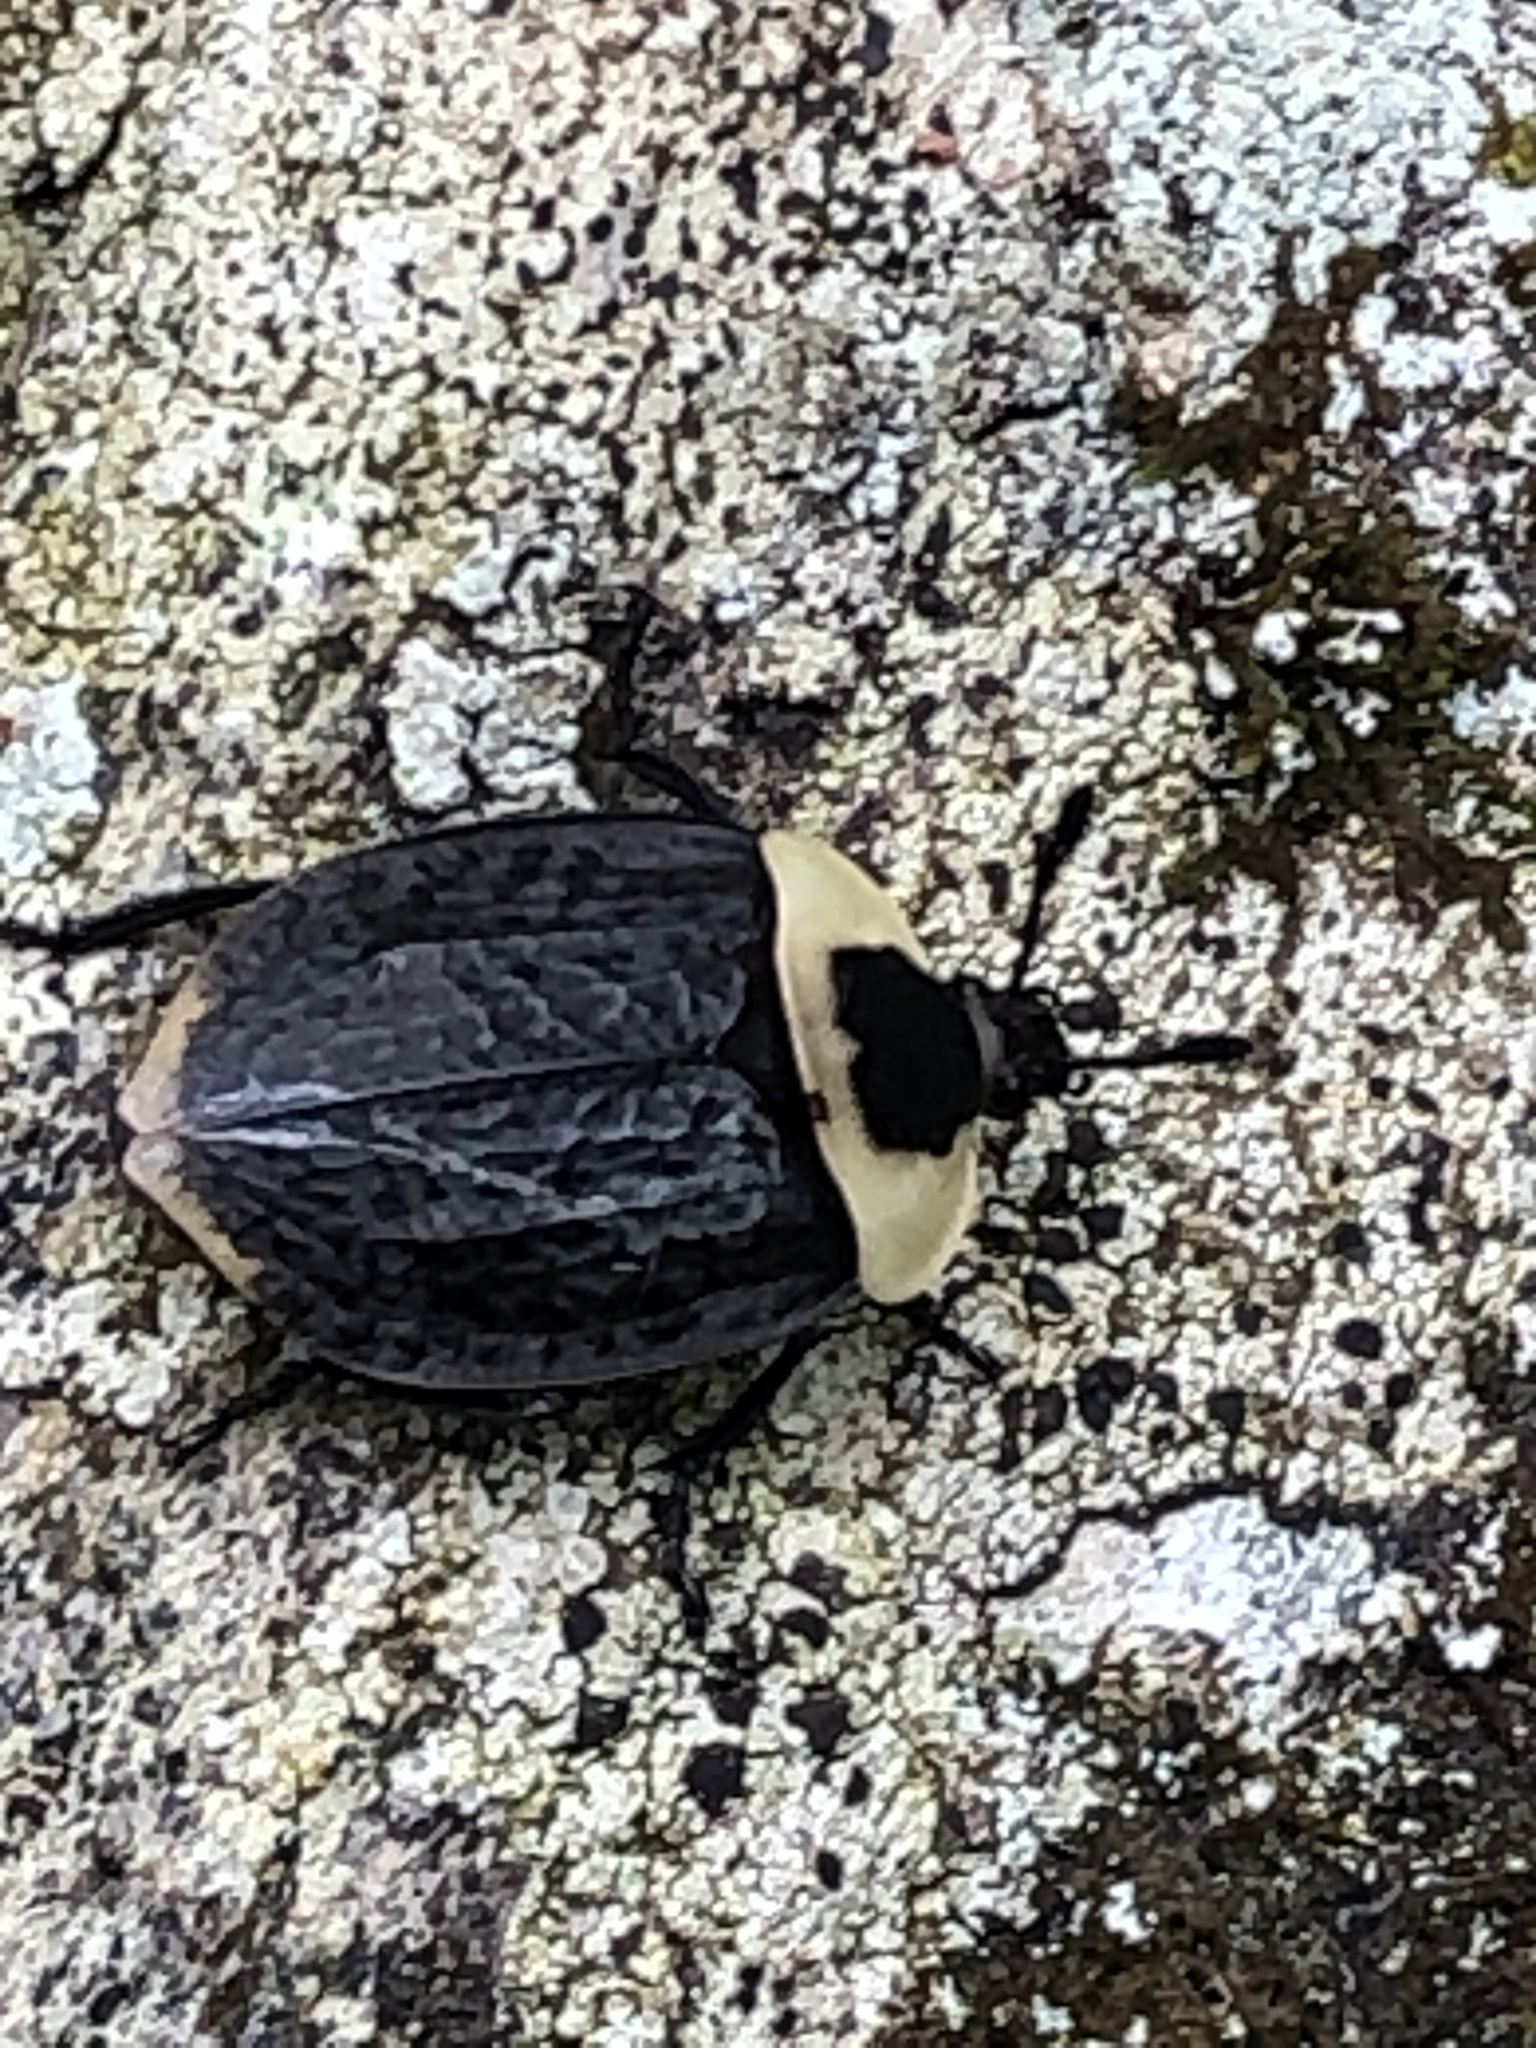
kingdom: Animalia
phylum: Arthropoda
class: Insecta
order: Coleoptera
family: Staphylinidae
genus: Necrophila
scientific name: Necrophila americana
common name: American carrion beetle
